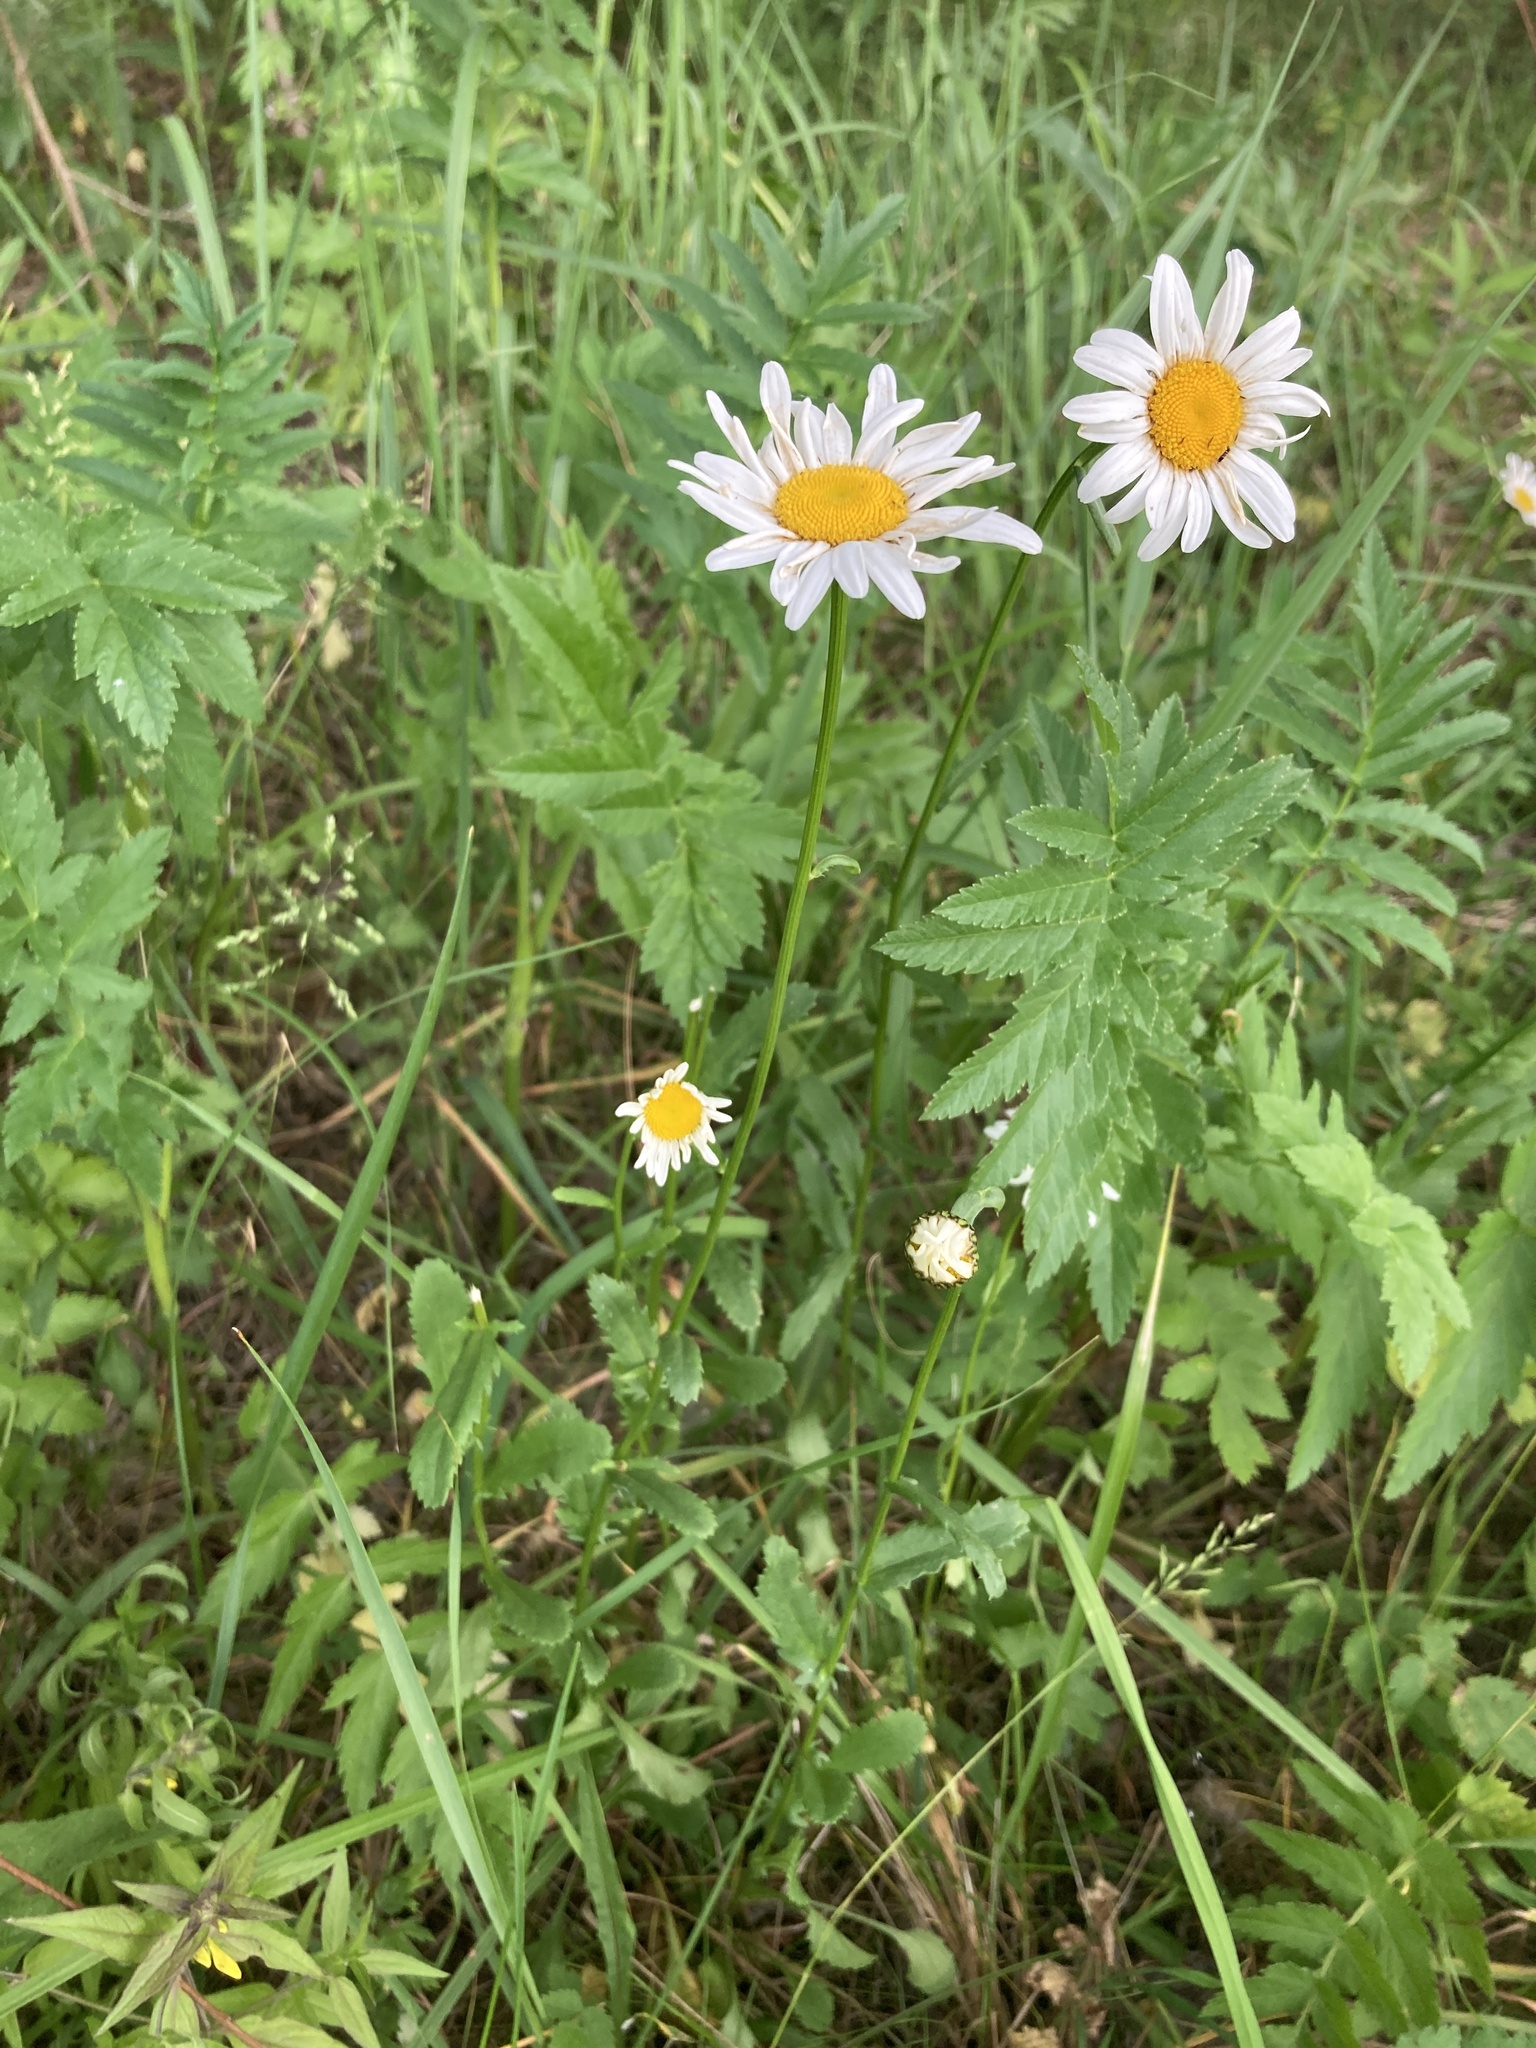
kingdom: Plantae
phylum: Tracheophyta
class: Magnoliopsida
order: Asterales
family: Asteraceae
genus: Leucanthemum
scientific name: Leucanthemum vulgare
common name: Oxeye daisy
